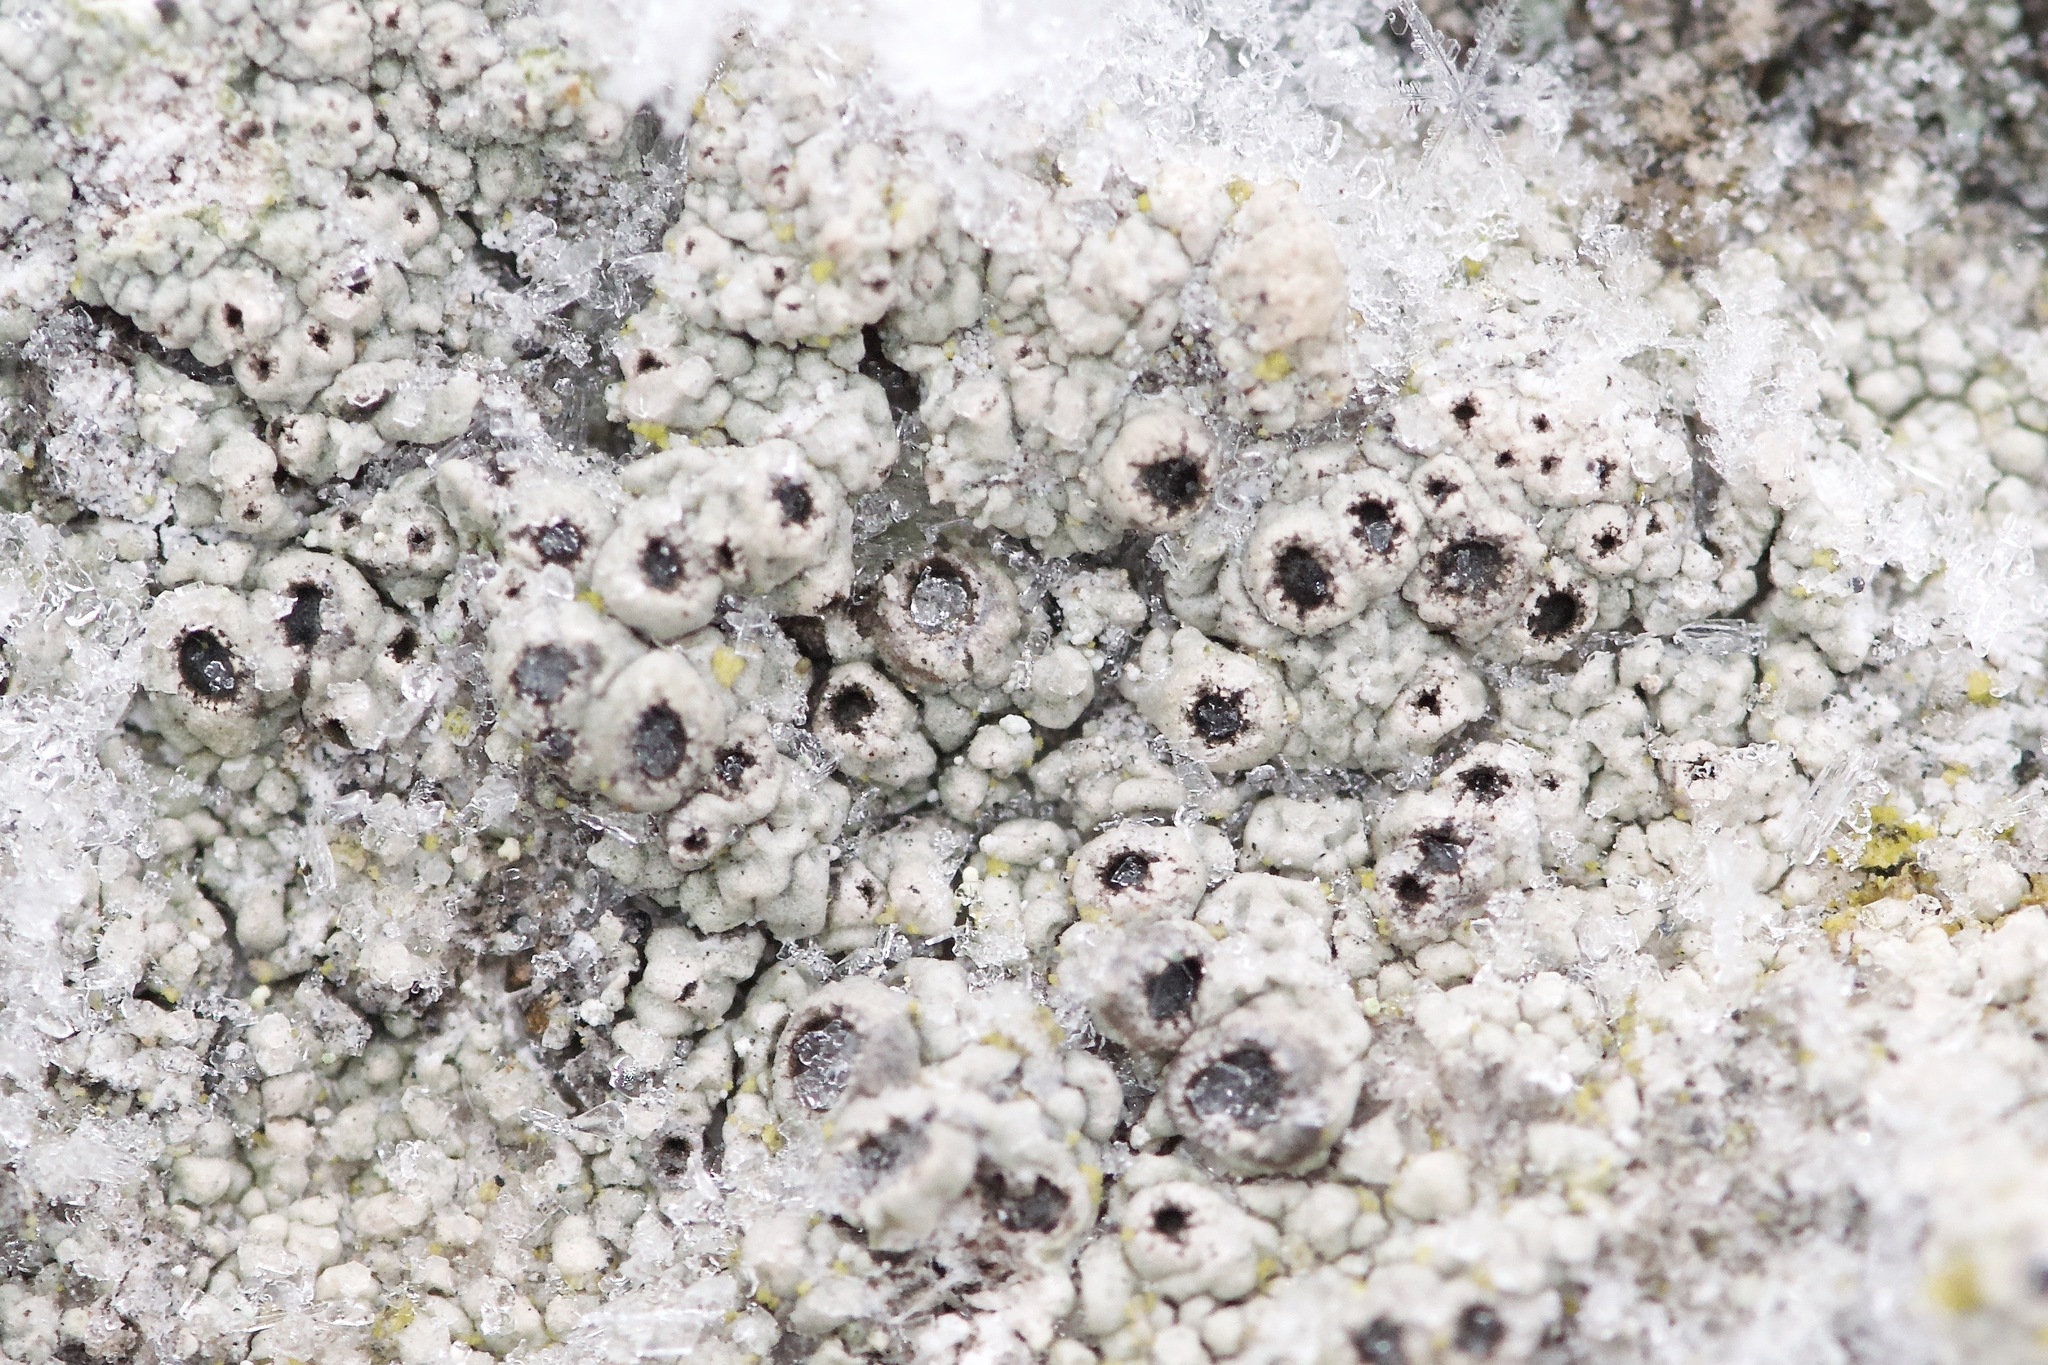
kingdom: Fungi
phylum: Ascomycota
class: Lecanoromycetes
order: Ostropales
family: Graphidaceae
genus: Diploschistes
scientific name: Diploschistes scruposus
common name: Crater lichen
